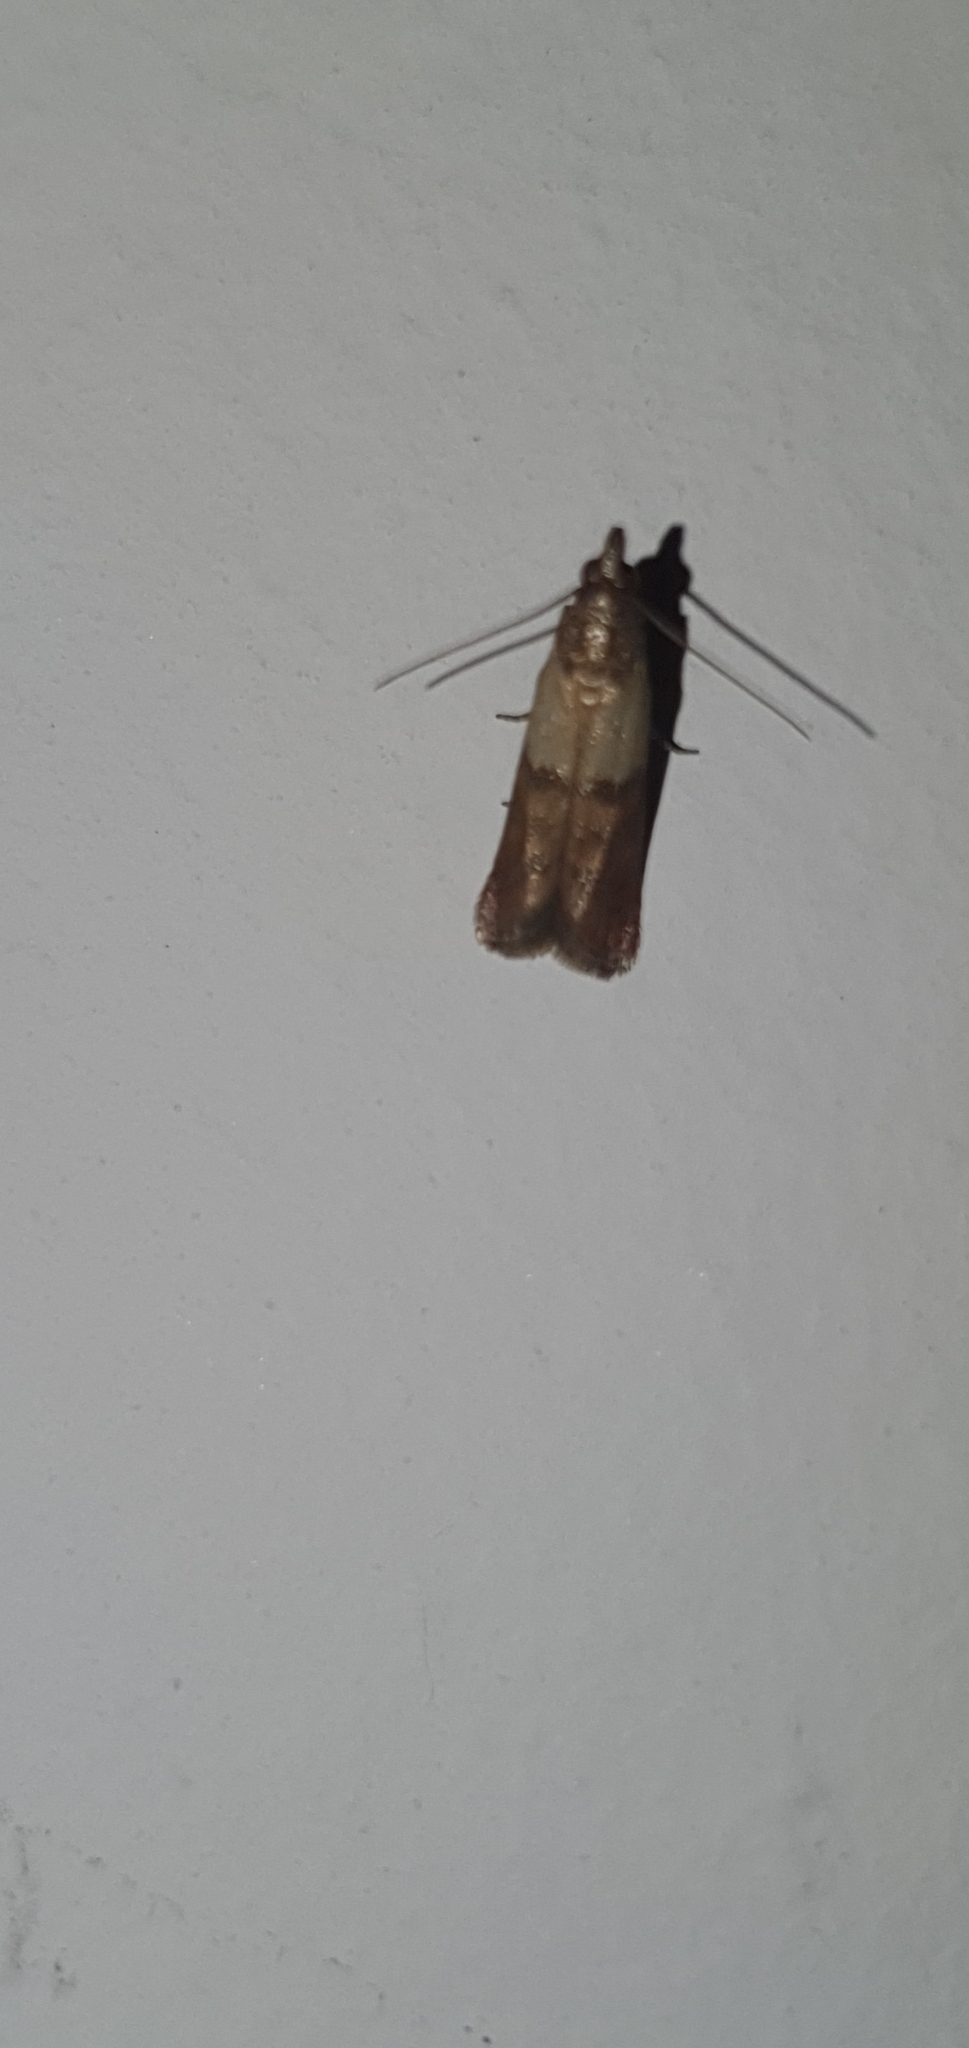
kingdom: Animalia
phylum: Arthropoda
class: Insecta
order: Lepidoptera
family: Pyralidae
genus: Plodia
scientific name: Plodia interpunctella
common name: Indian meal moth
